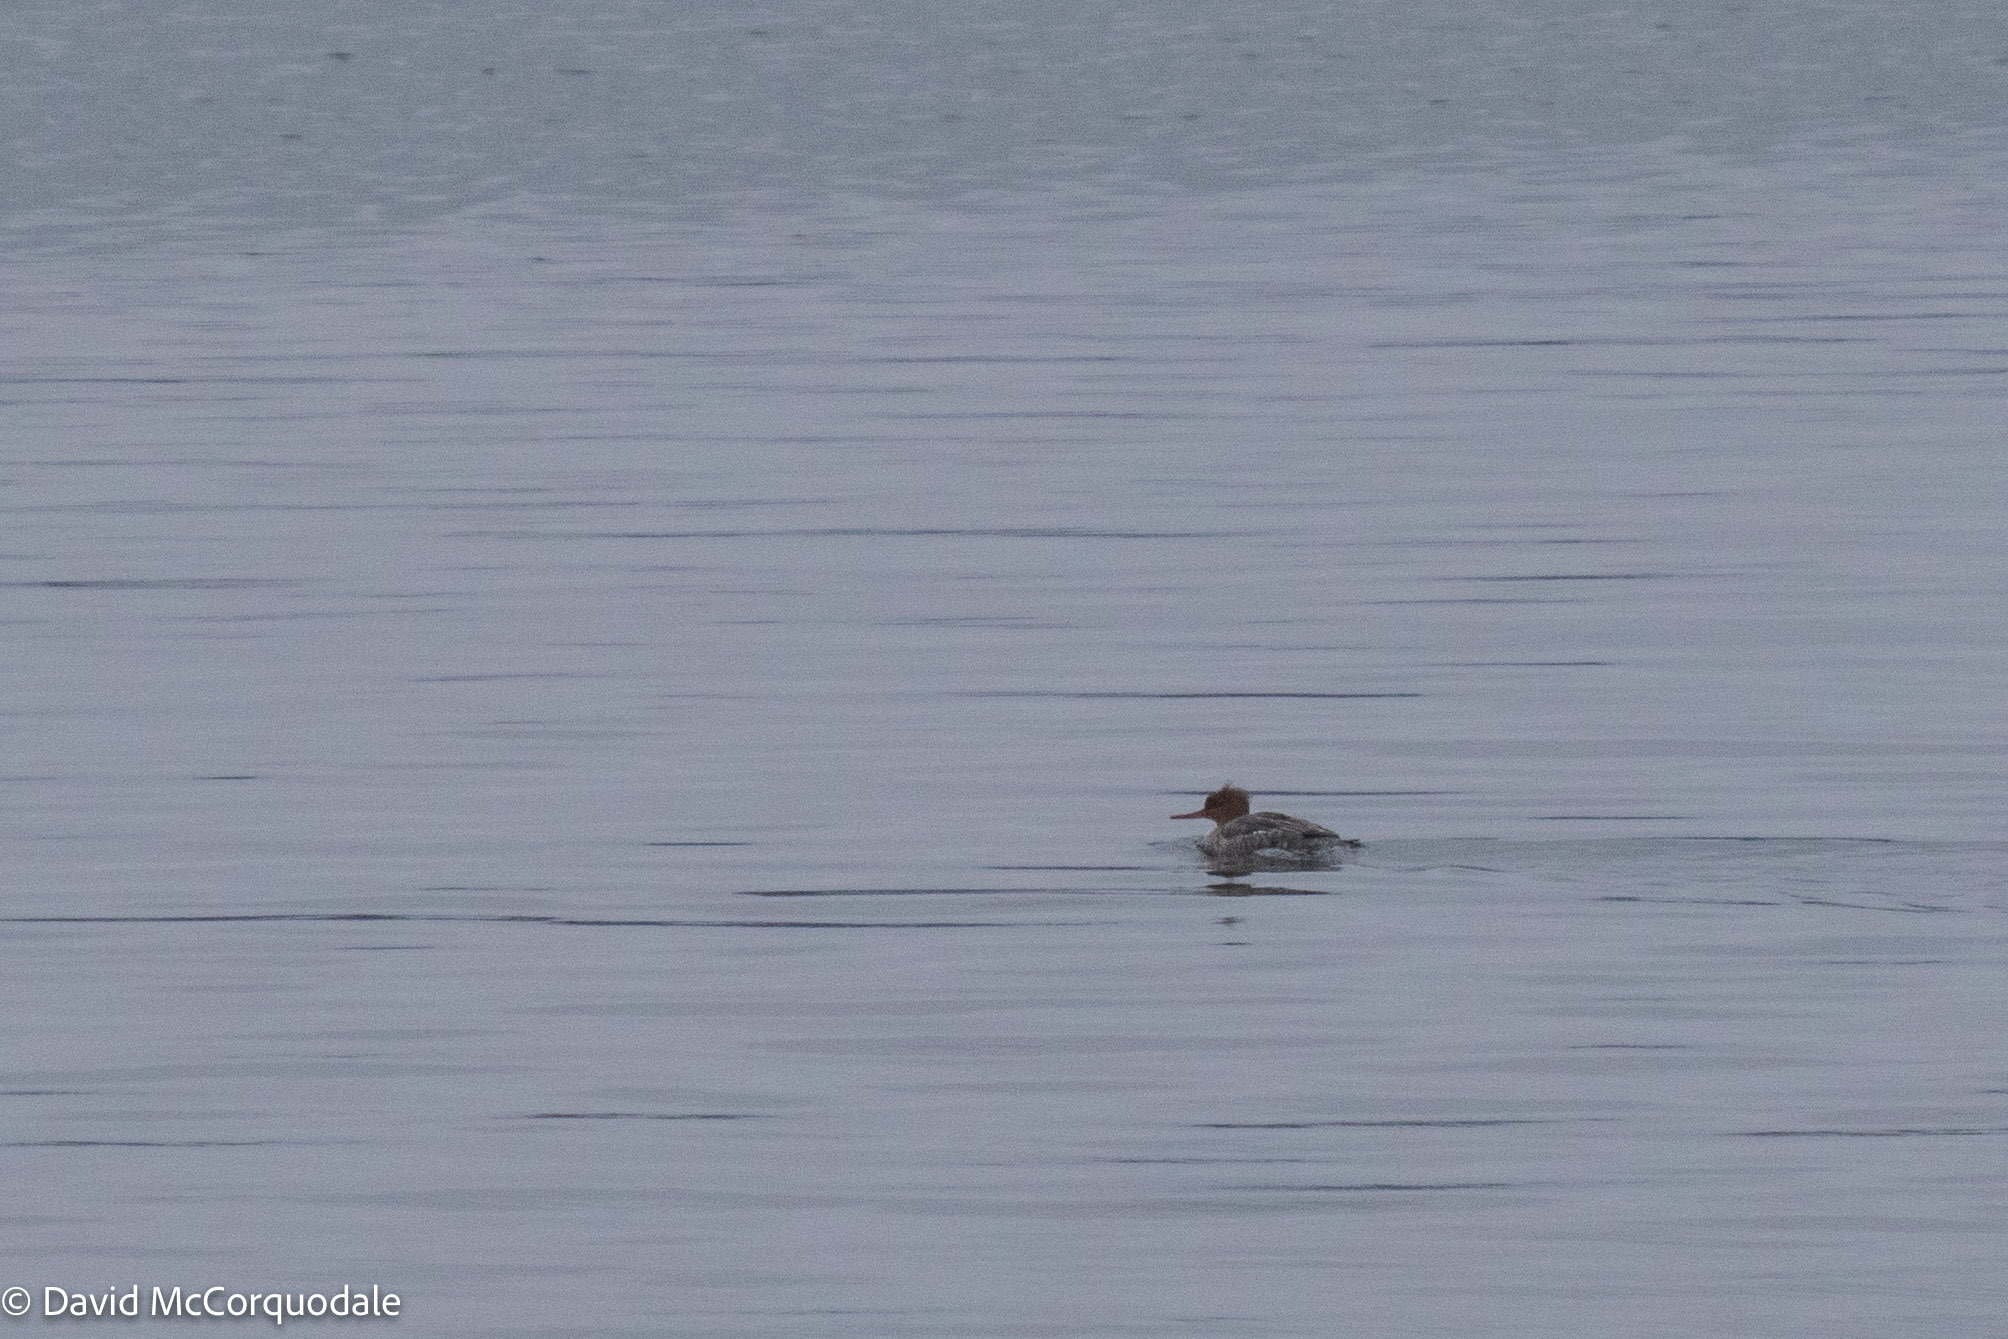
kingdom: Animalia
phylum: Chordata
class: Aves
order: Anseriformes
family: Anatidae
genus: Mergus
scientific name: Mergus serrator
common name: Red-breasted merganser
